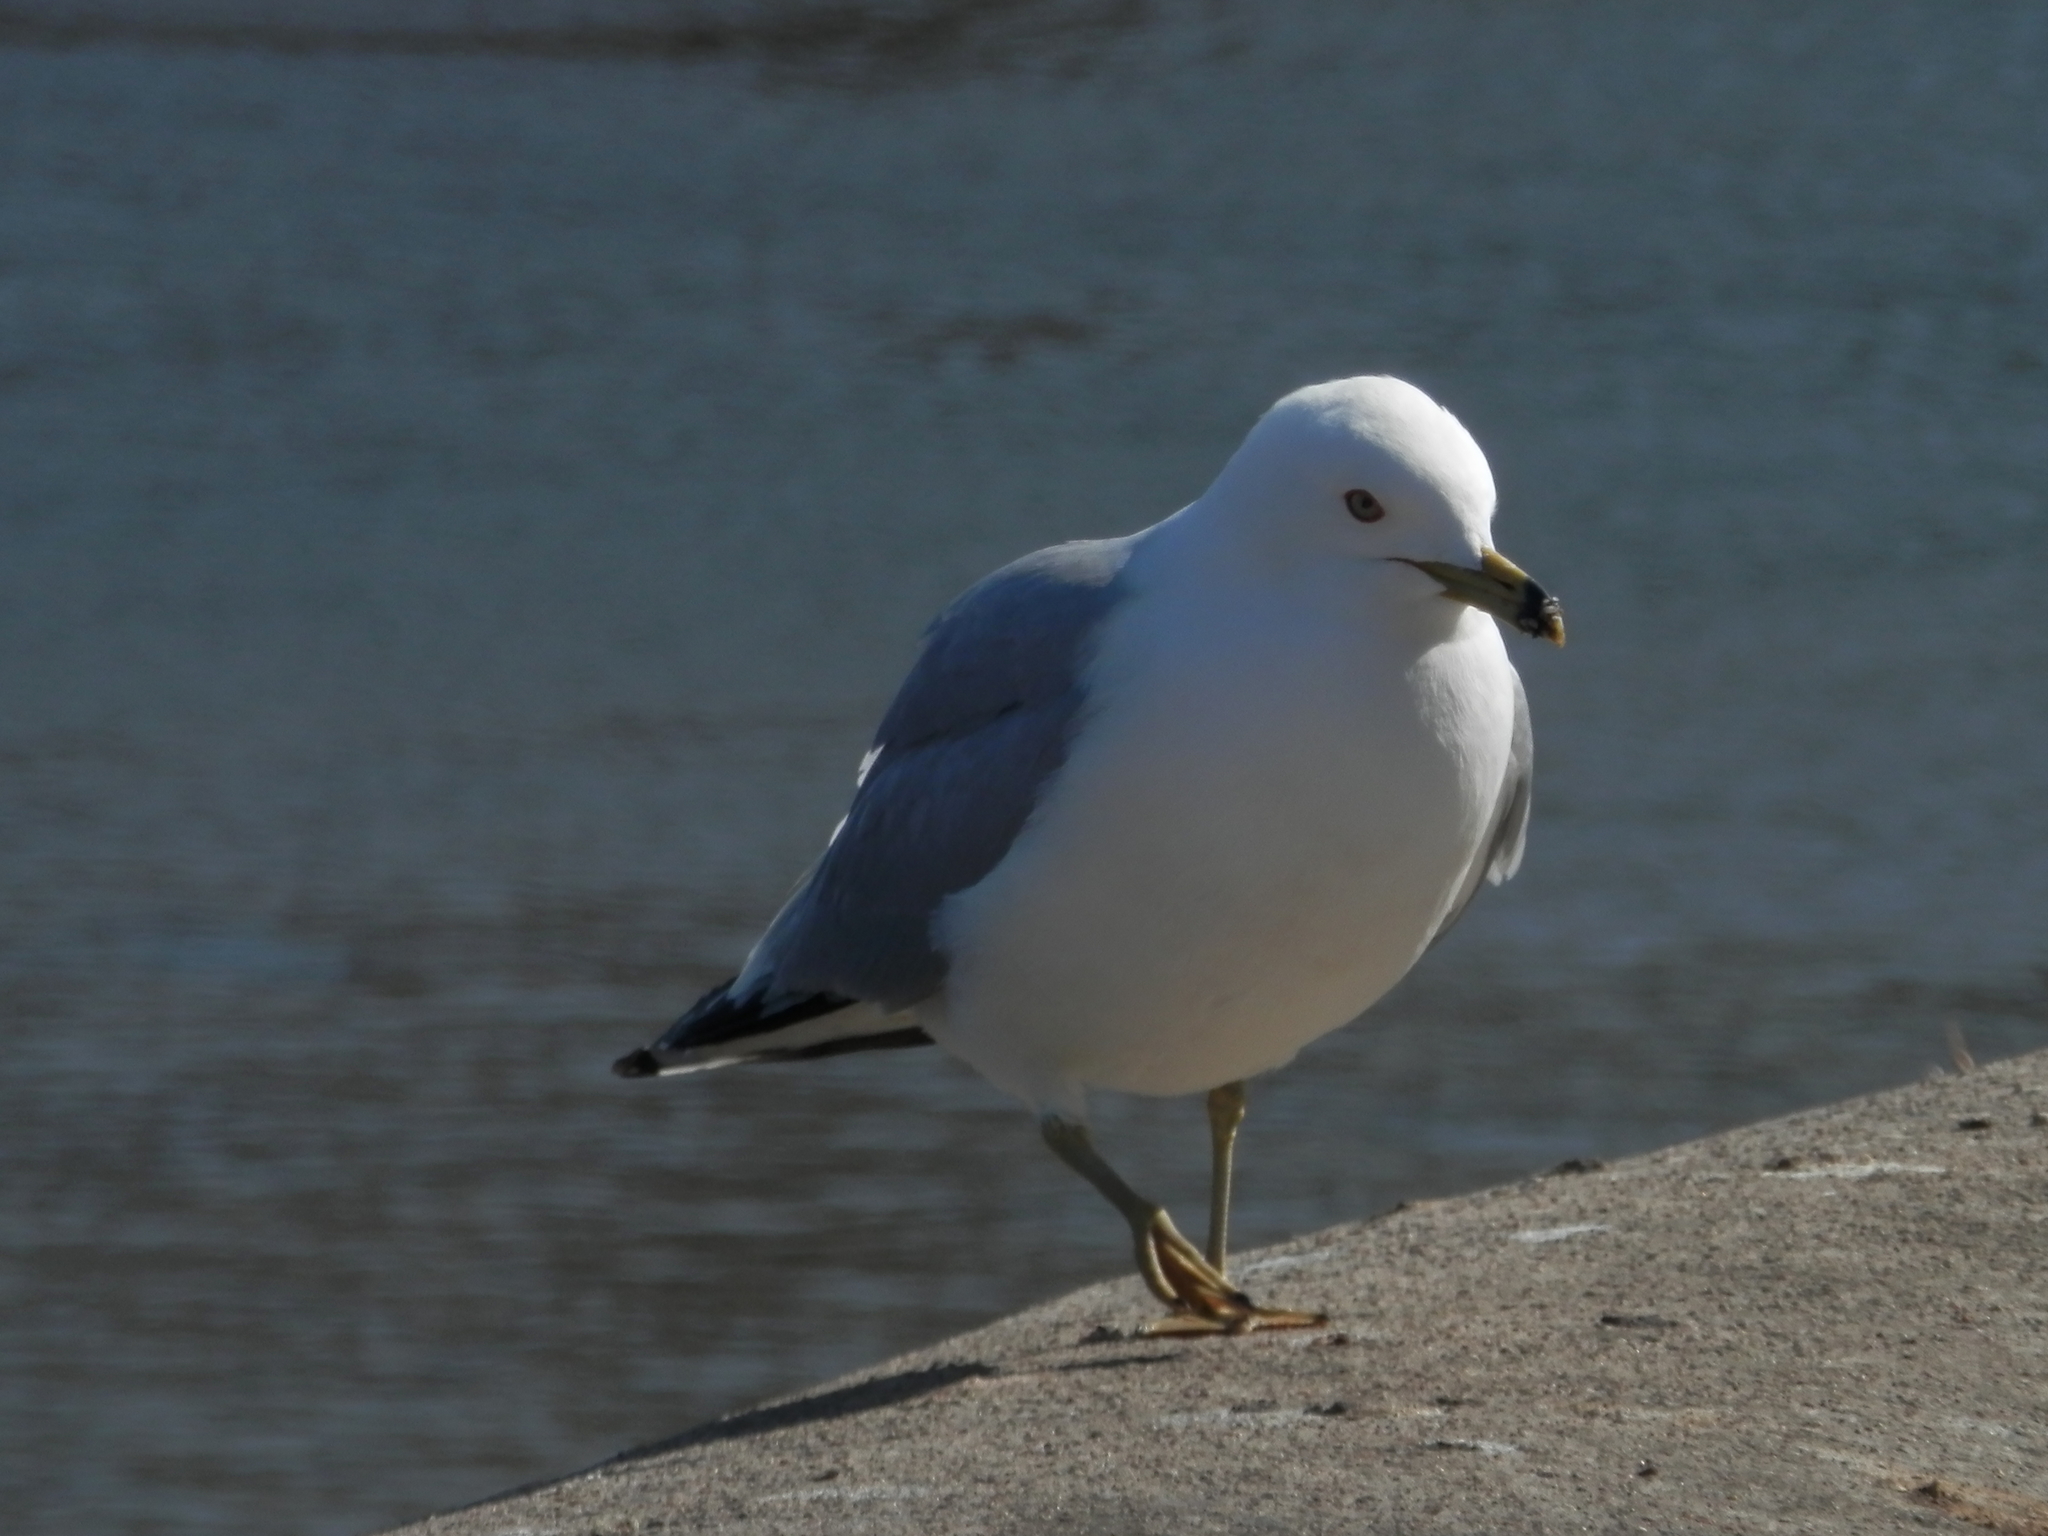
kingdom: Animalia
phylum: Chordata
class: Aves
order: Charadriiformes
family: Laridae
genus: Larus
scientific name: Larus delawarensis
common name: Ring-billed gull
